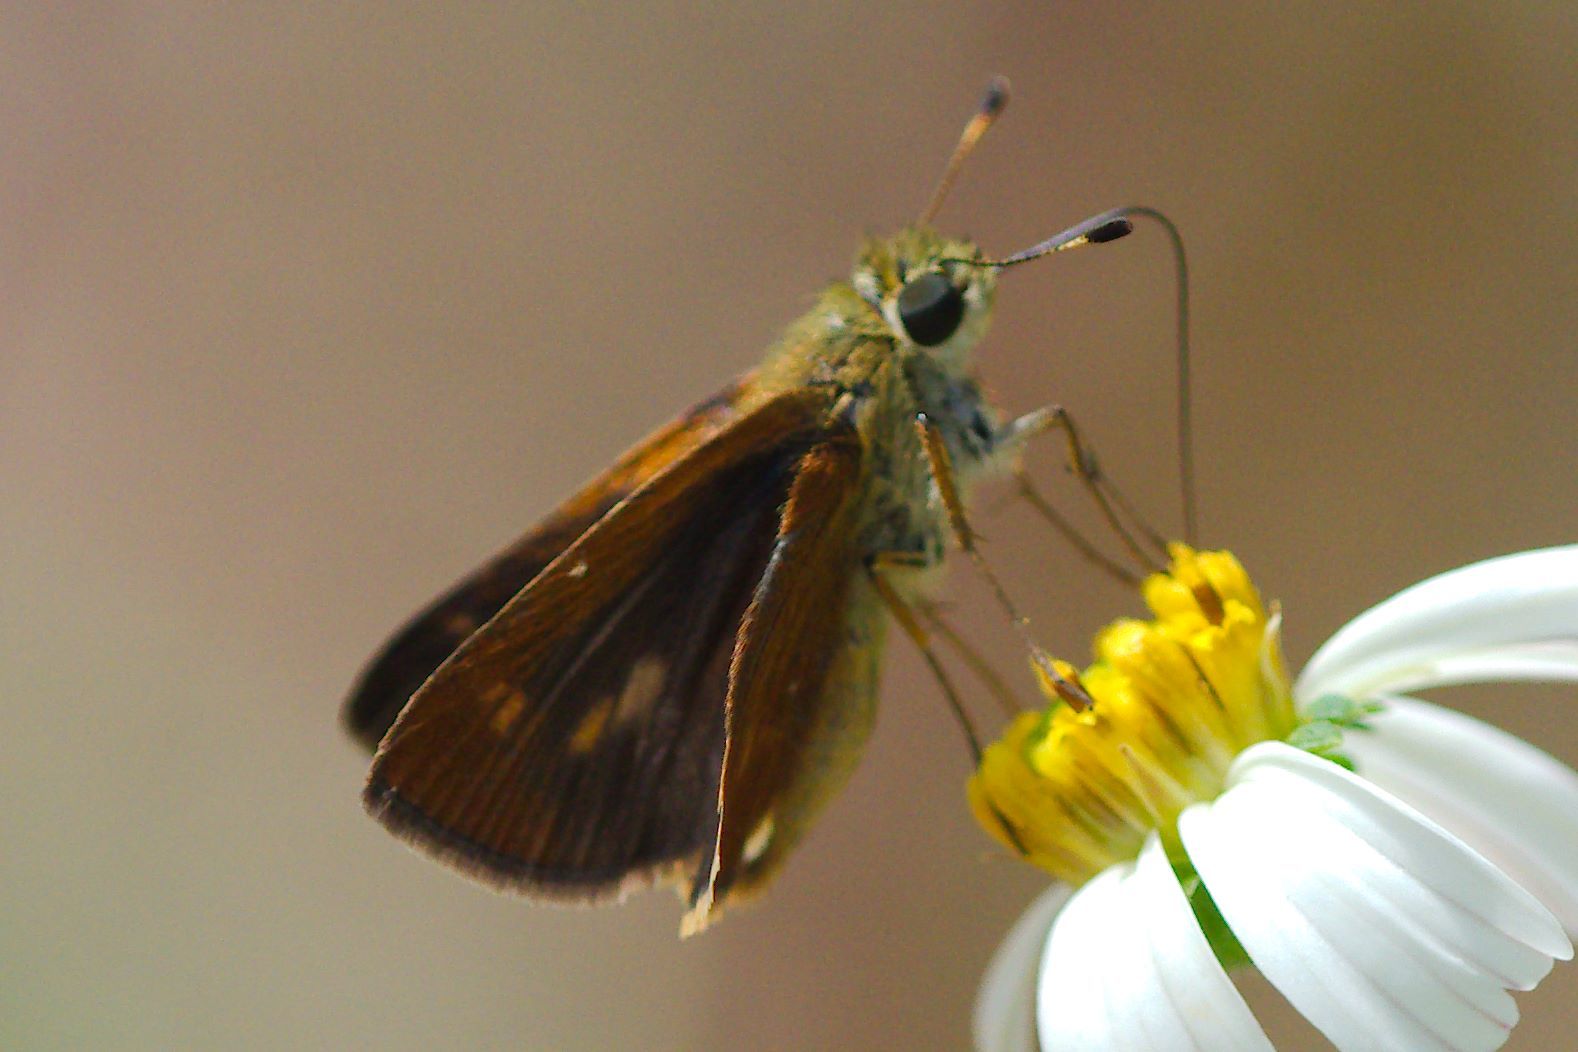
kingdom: Animalia
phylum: Arthropoda
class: Insecta
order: Lepidoptera
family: Hesperiidae
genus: Polites
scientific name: Polites otho
